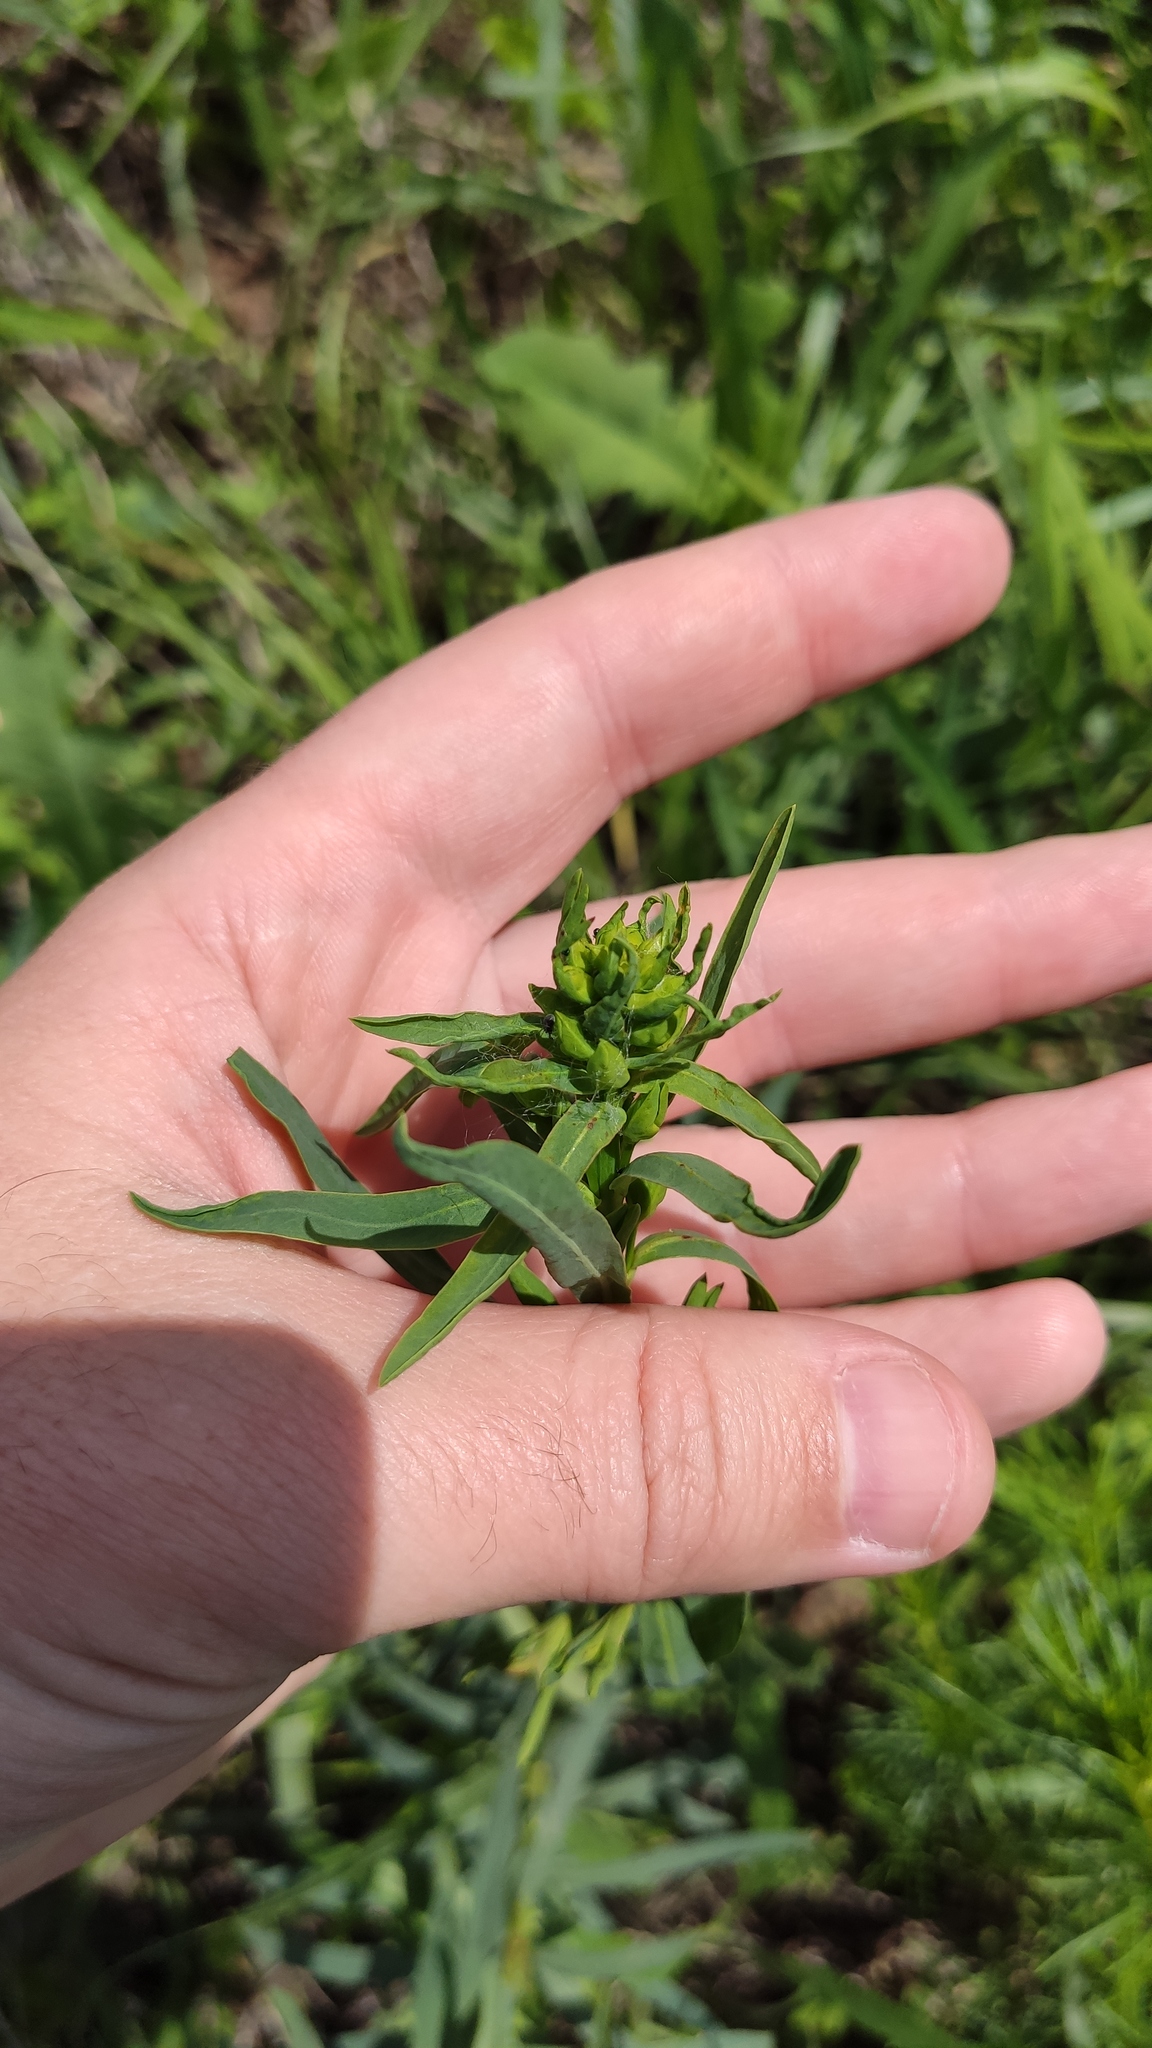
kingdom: Plantae
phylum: Tracheophyta
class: Magnoliopsida
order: Malpighiales
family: Euphorbiaceae
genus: Euphorbia
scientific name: Euphorbia virgata
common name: Leafy spurge
